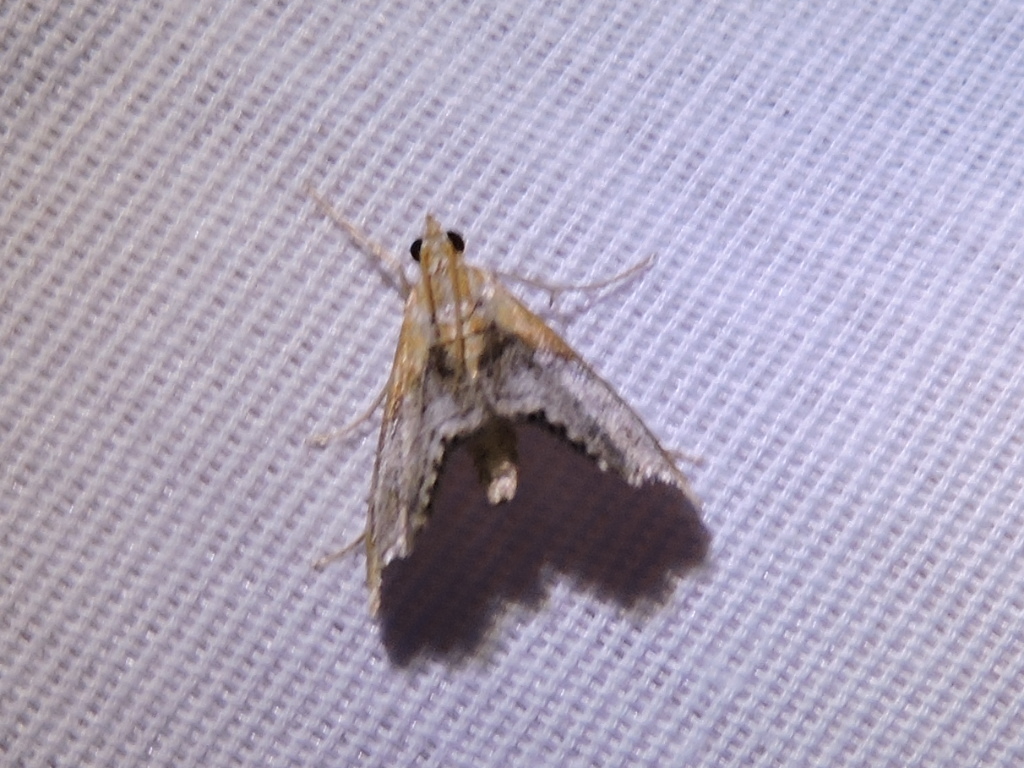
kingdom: Animalia
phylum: Arthropoda
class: Insecta
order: Lepidoptera
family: Crambidae
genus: Chalcoela
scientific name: Chalcoela iphitalis
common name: Sooty-winged chalcoela moth
